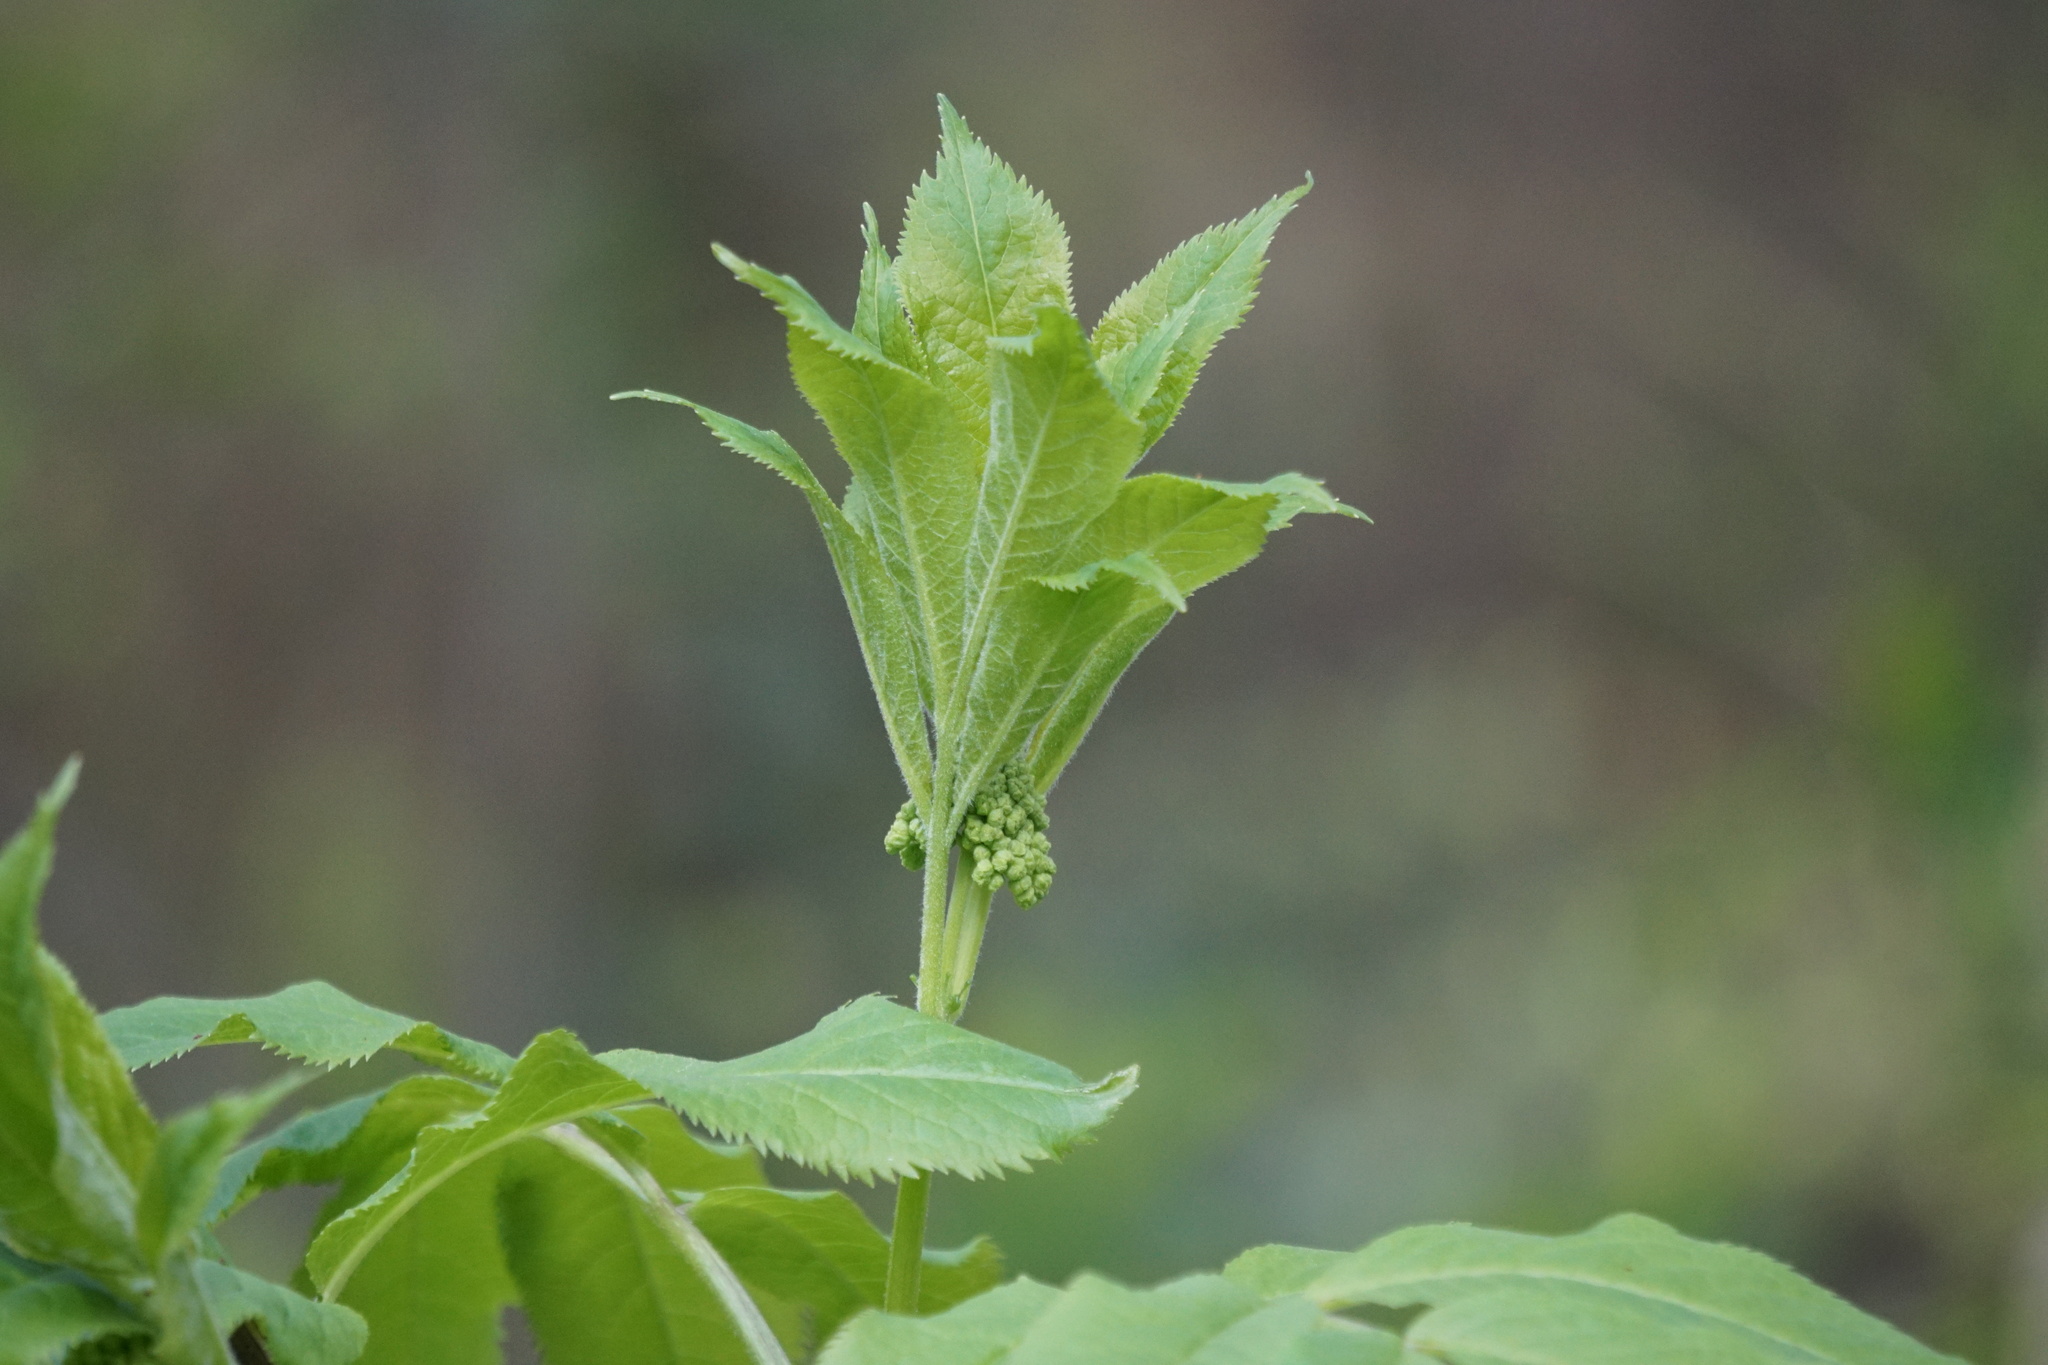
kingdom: Plantae
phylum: Tracheophyta
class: Magnoliopsida
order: Dipsacales
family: Viburnaceae
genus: Sambucus
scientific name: Sambucus racemosa
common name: Red-berried elder
